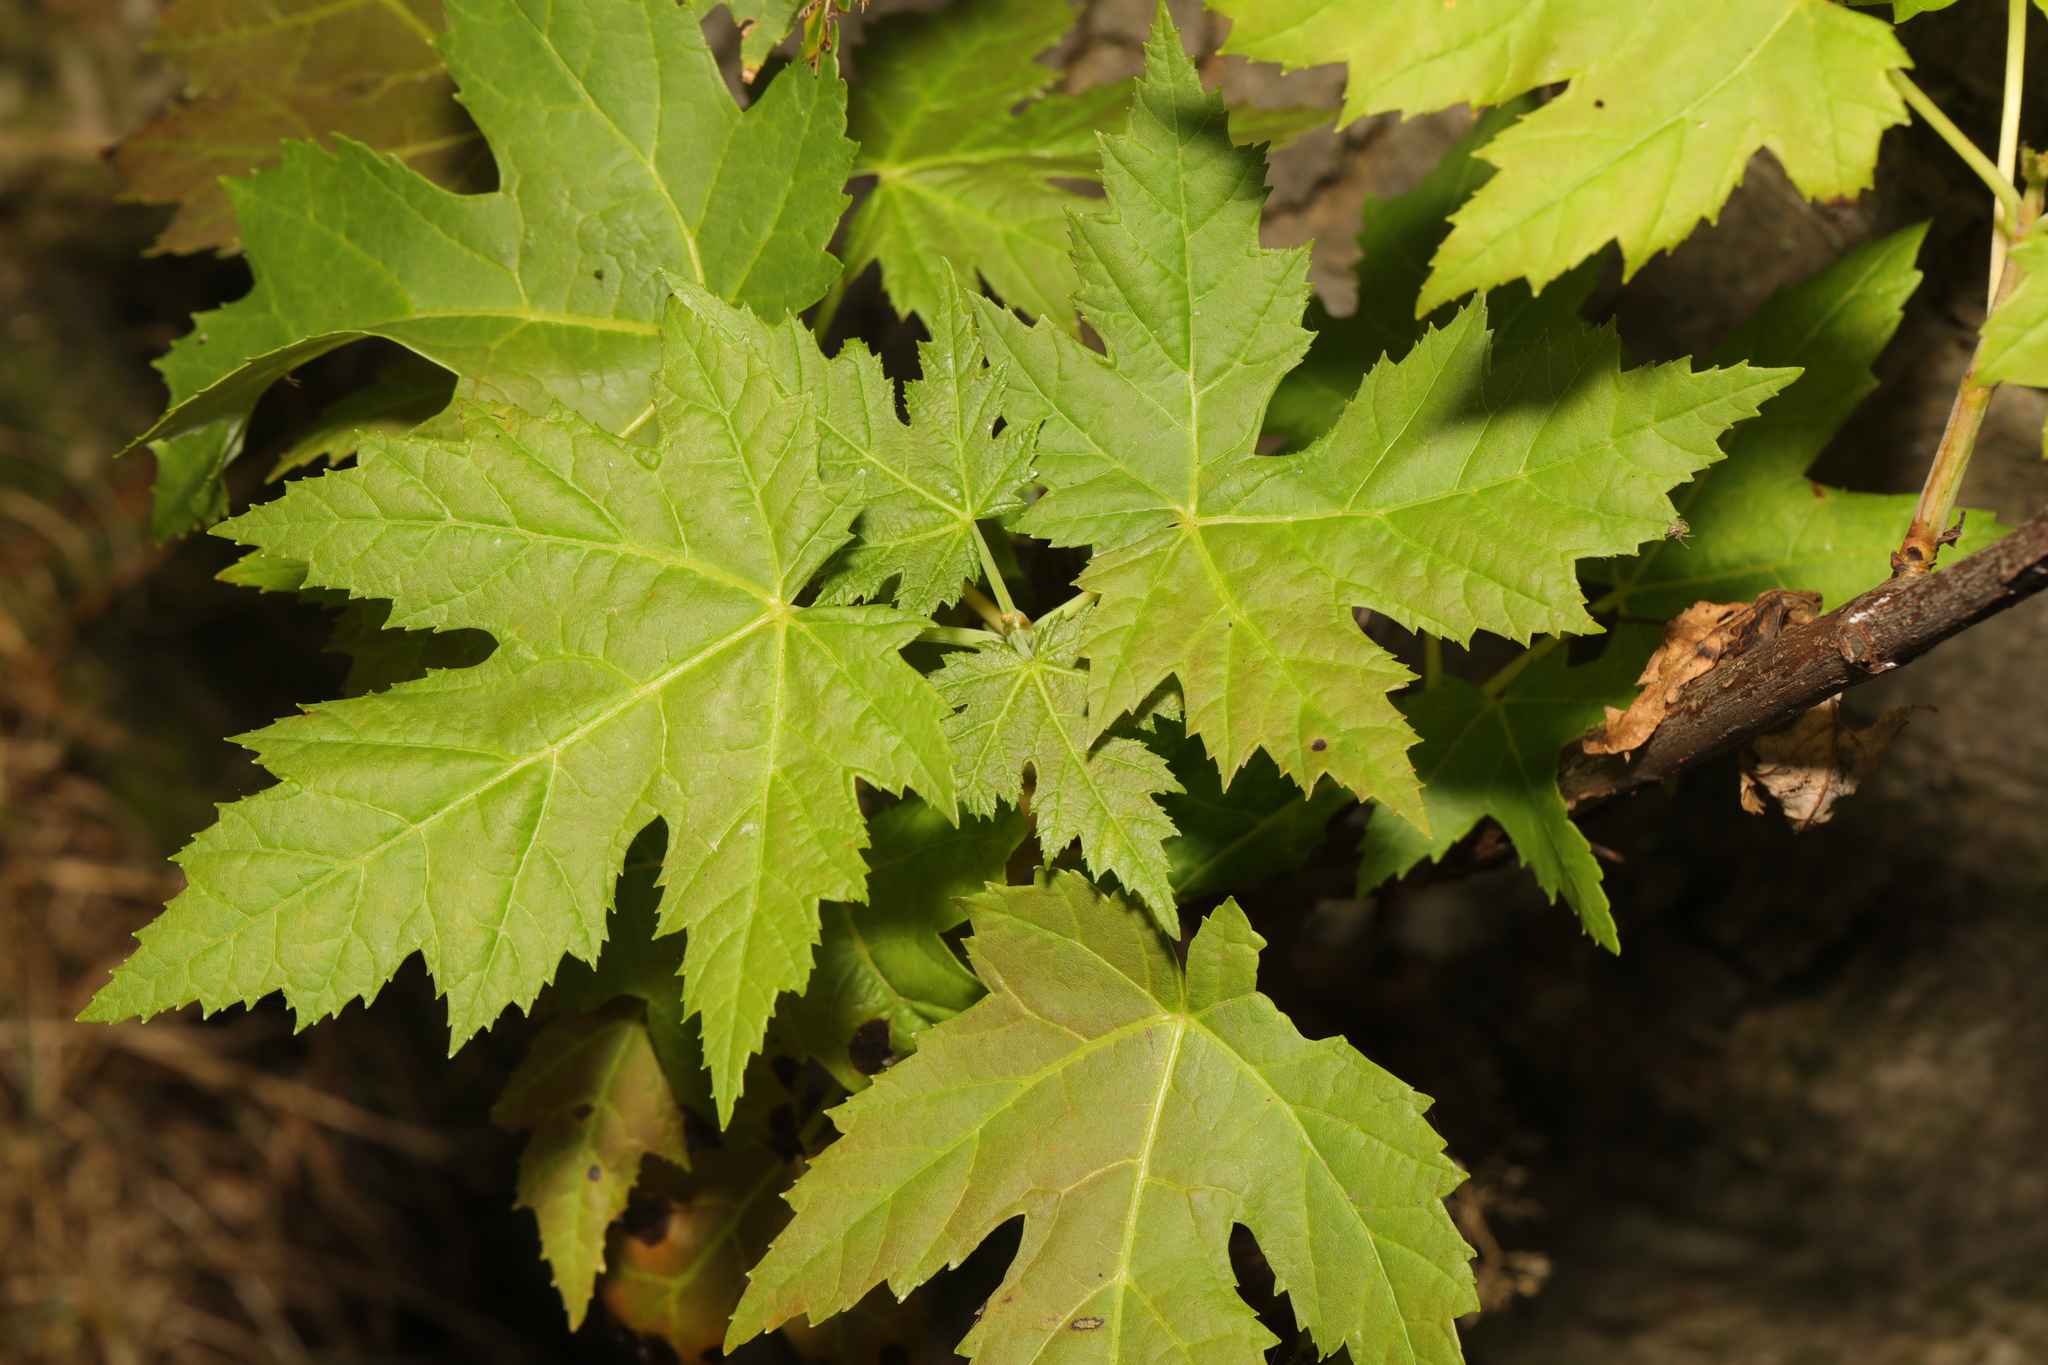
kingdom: Plantae
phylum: Tracheophyta
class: Magnoliopsida
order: Sapindales
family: Sapindaceae
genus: Acer
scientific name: Acer saccharinum
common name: Silver maple
